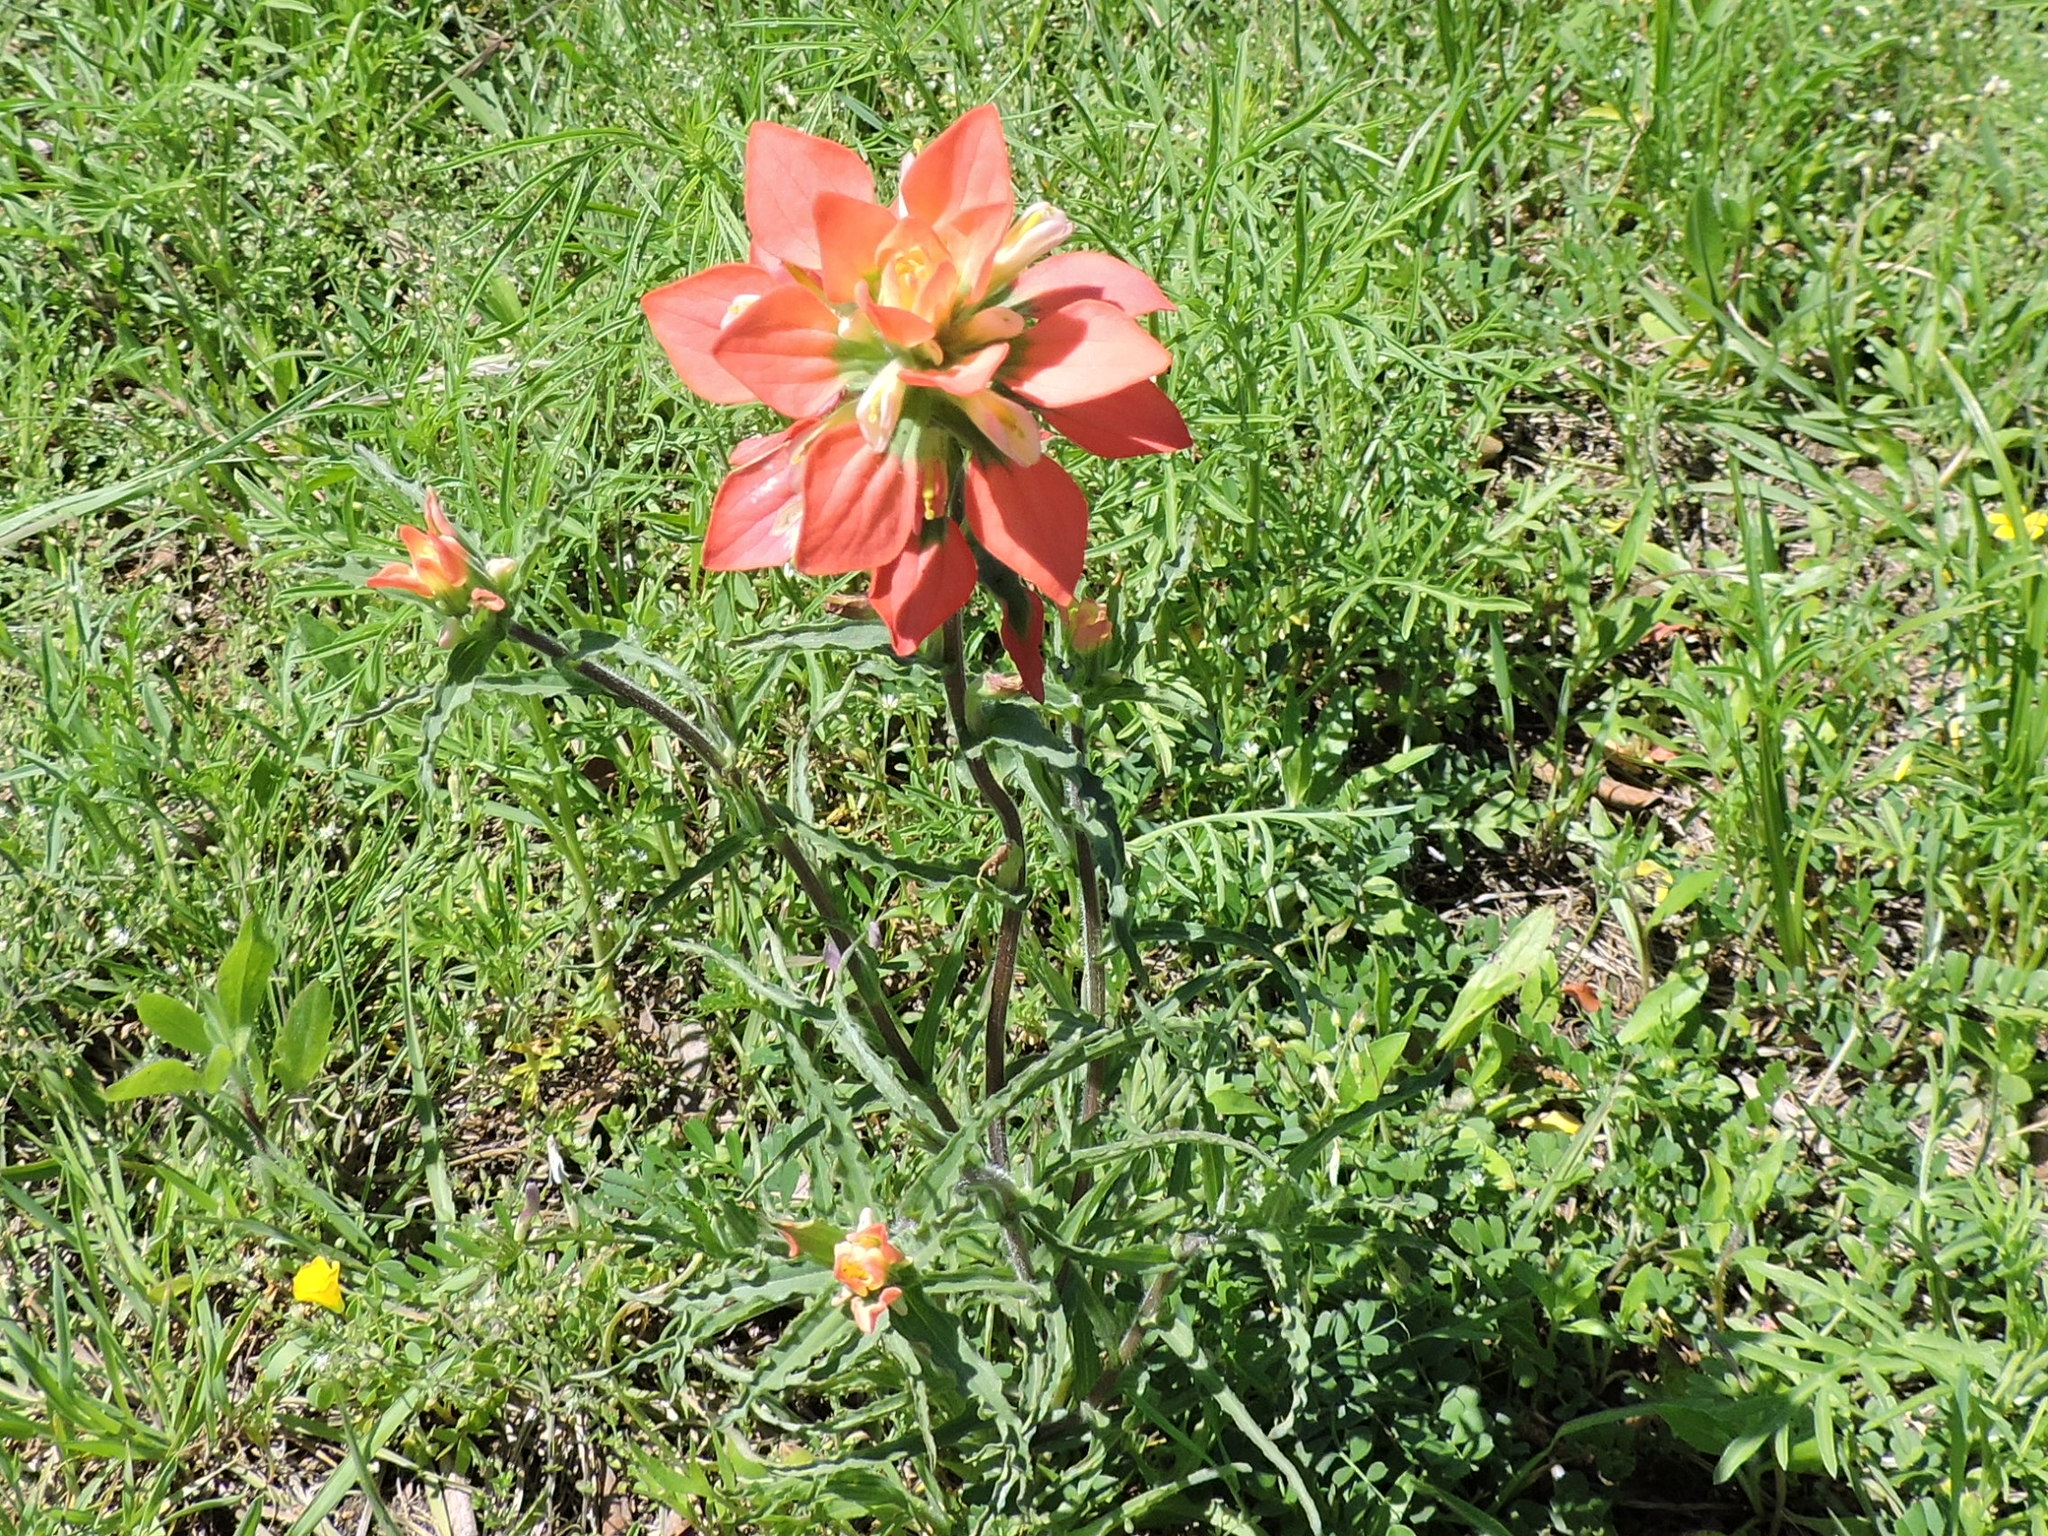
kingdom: Plantae
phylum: Tracheophyta
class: Magnoliopsida
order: Lamiales
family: Orobanchaceae
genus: Castilleja
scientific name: Castilleja indivisa
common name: Texas paintbrush
